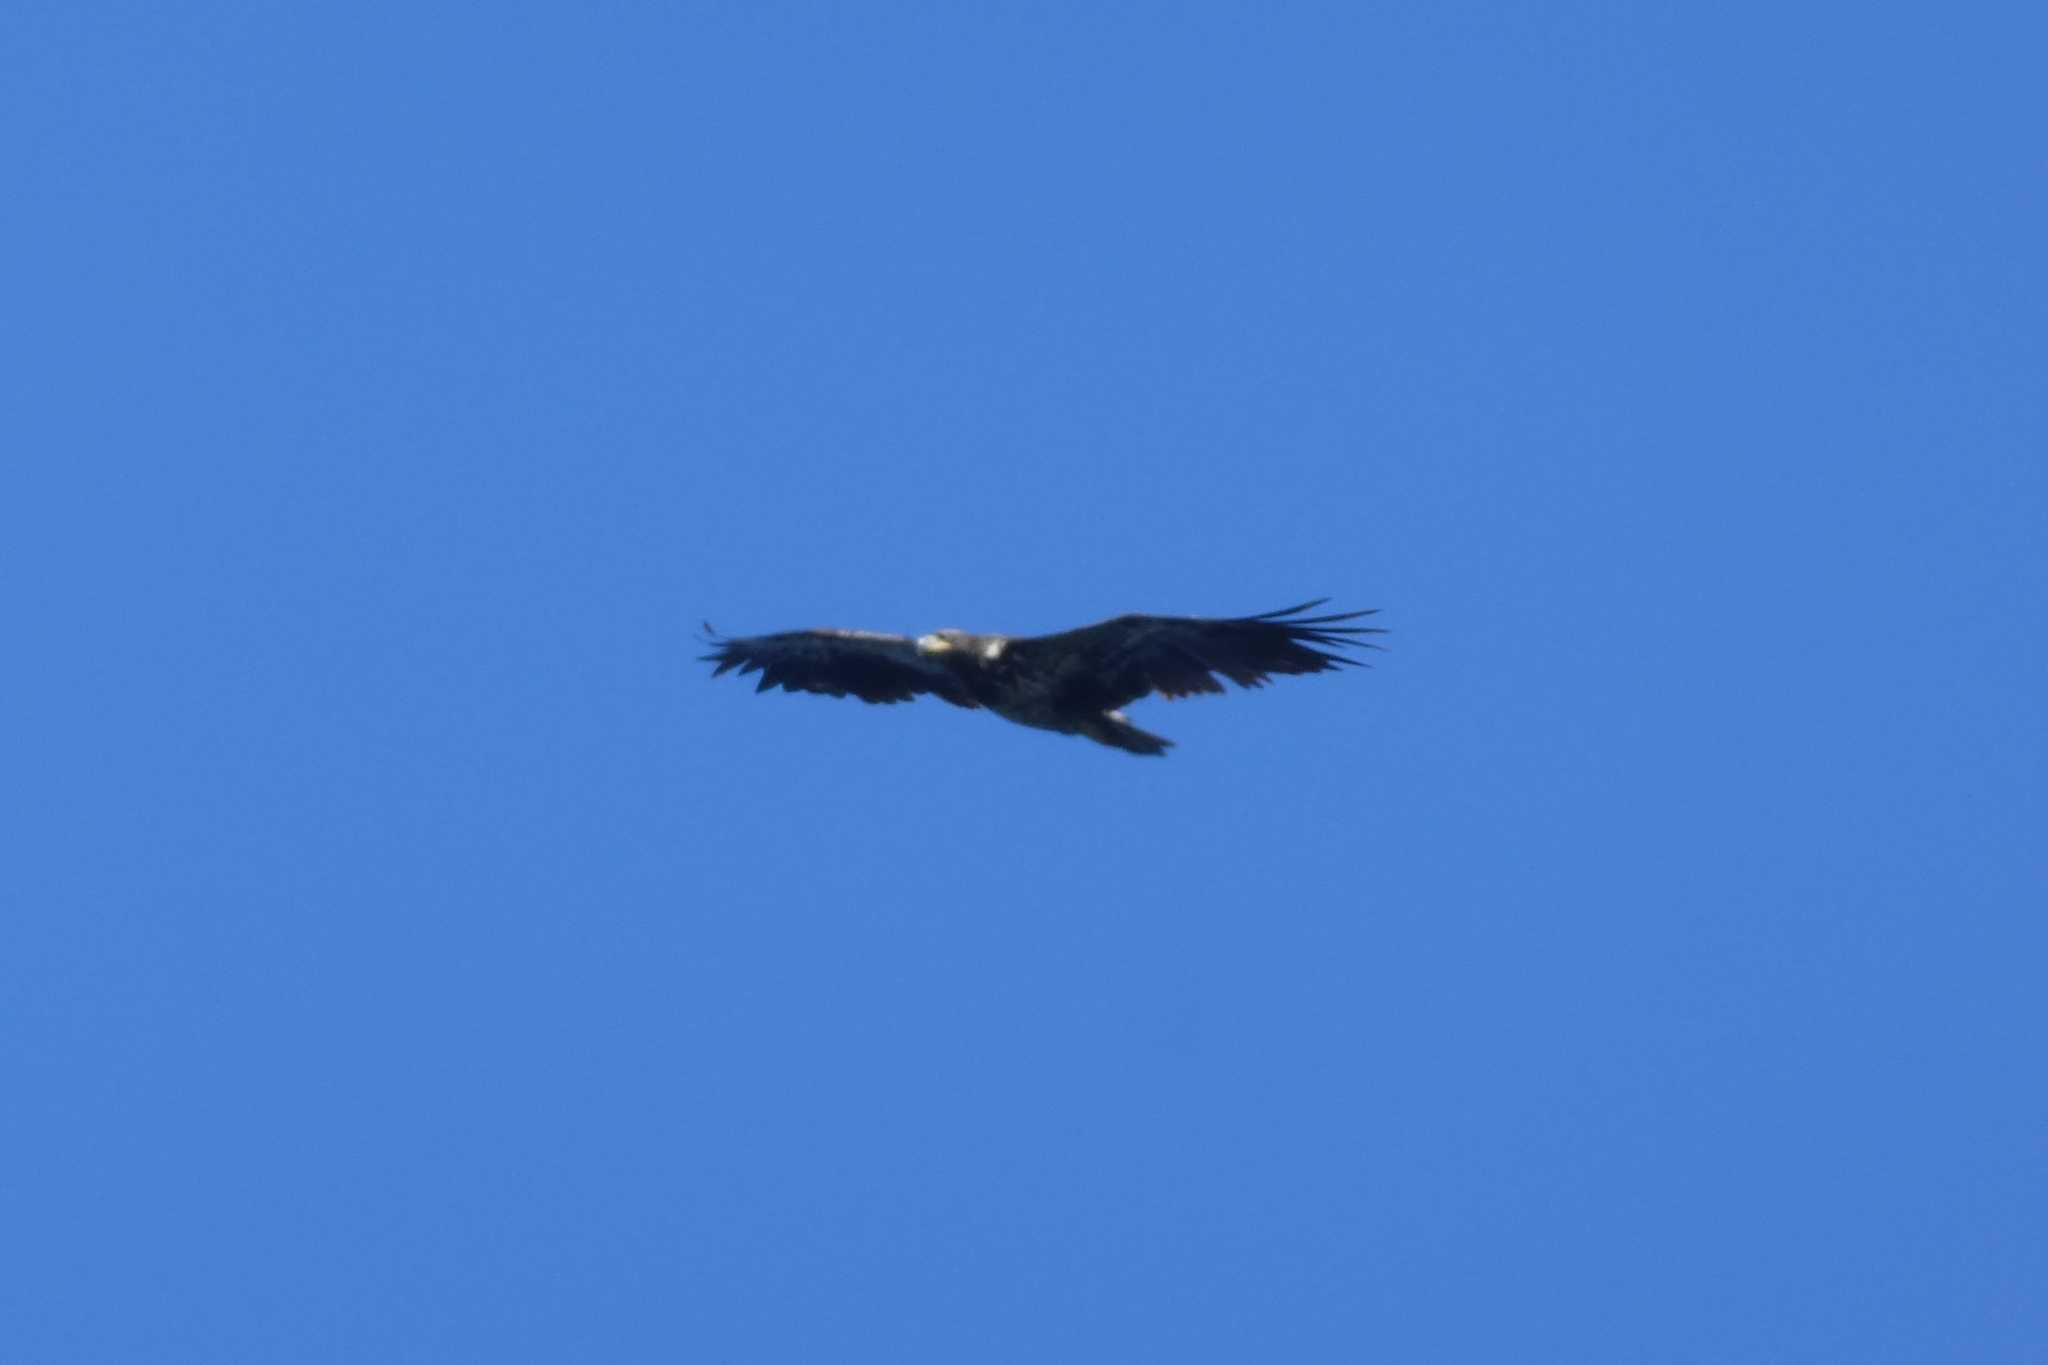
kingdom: Animalia
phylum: Chordata
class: Aves
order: Accipitriformes
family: Accipitridae
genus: Haliaeetus
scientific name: Haliaeetus leucocephalus
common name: Bald eagle
